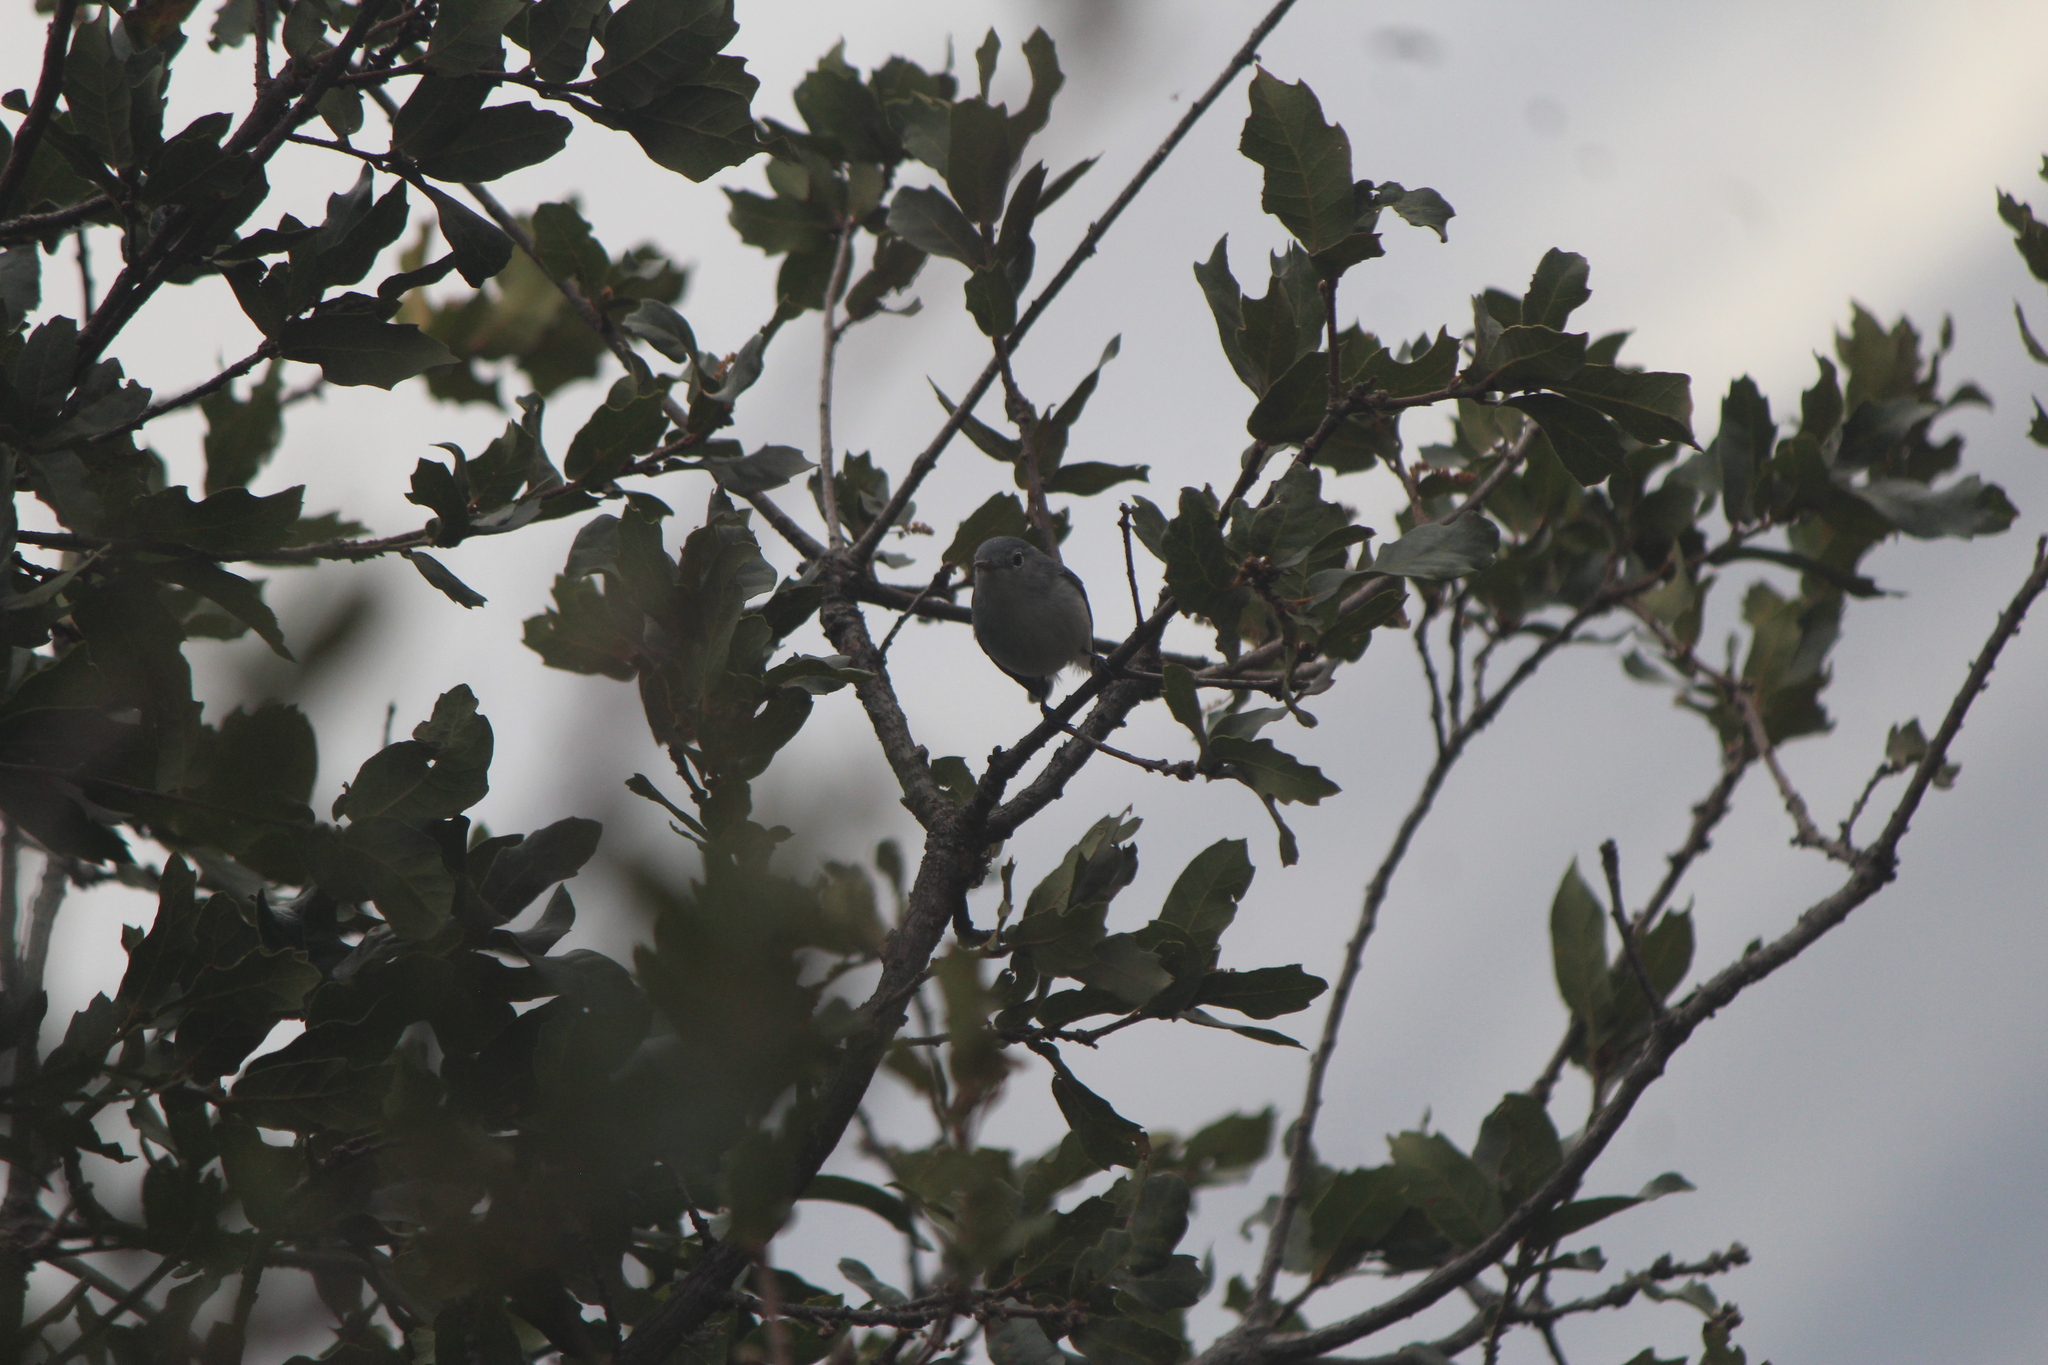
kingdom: Animalia
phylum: Chordata
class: Aves
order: Passeriformes
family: Polioptilidae
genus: Polioptila
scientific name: Polioptila caerulea
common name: Blue-gray gnatcatcher
